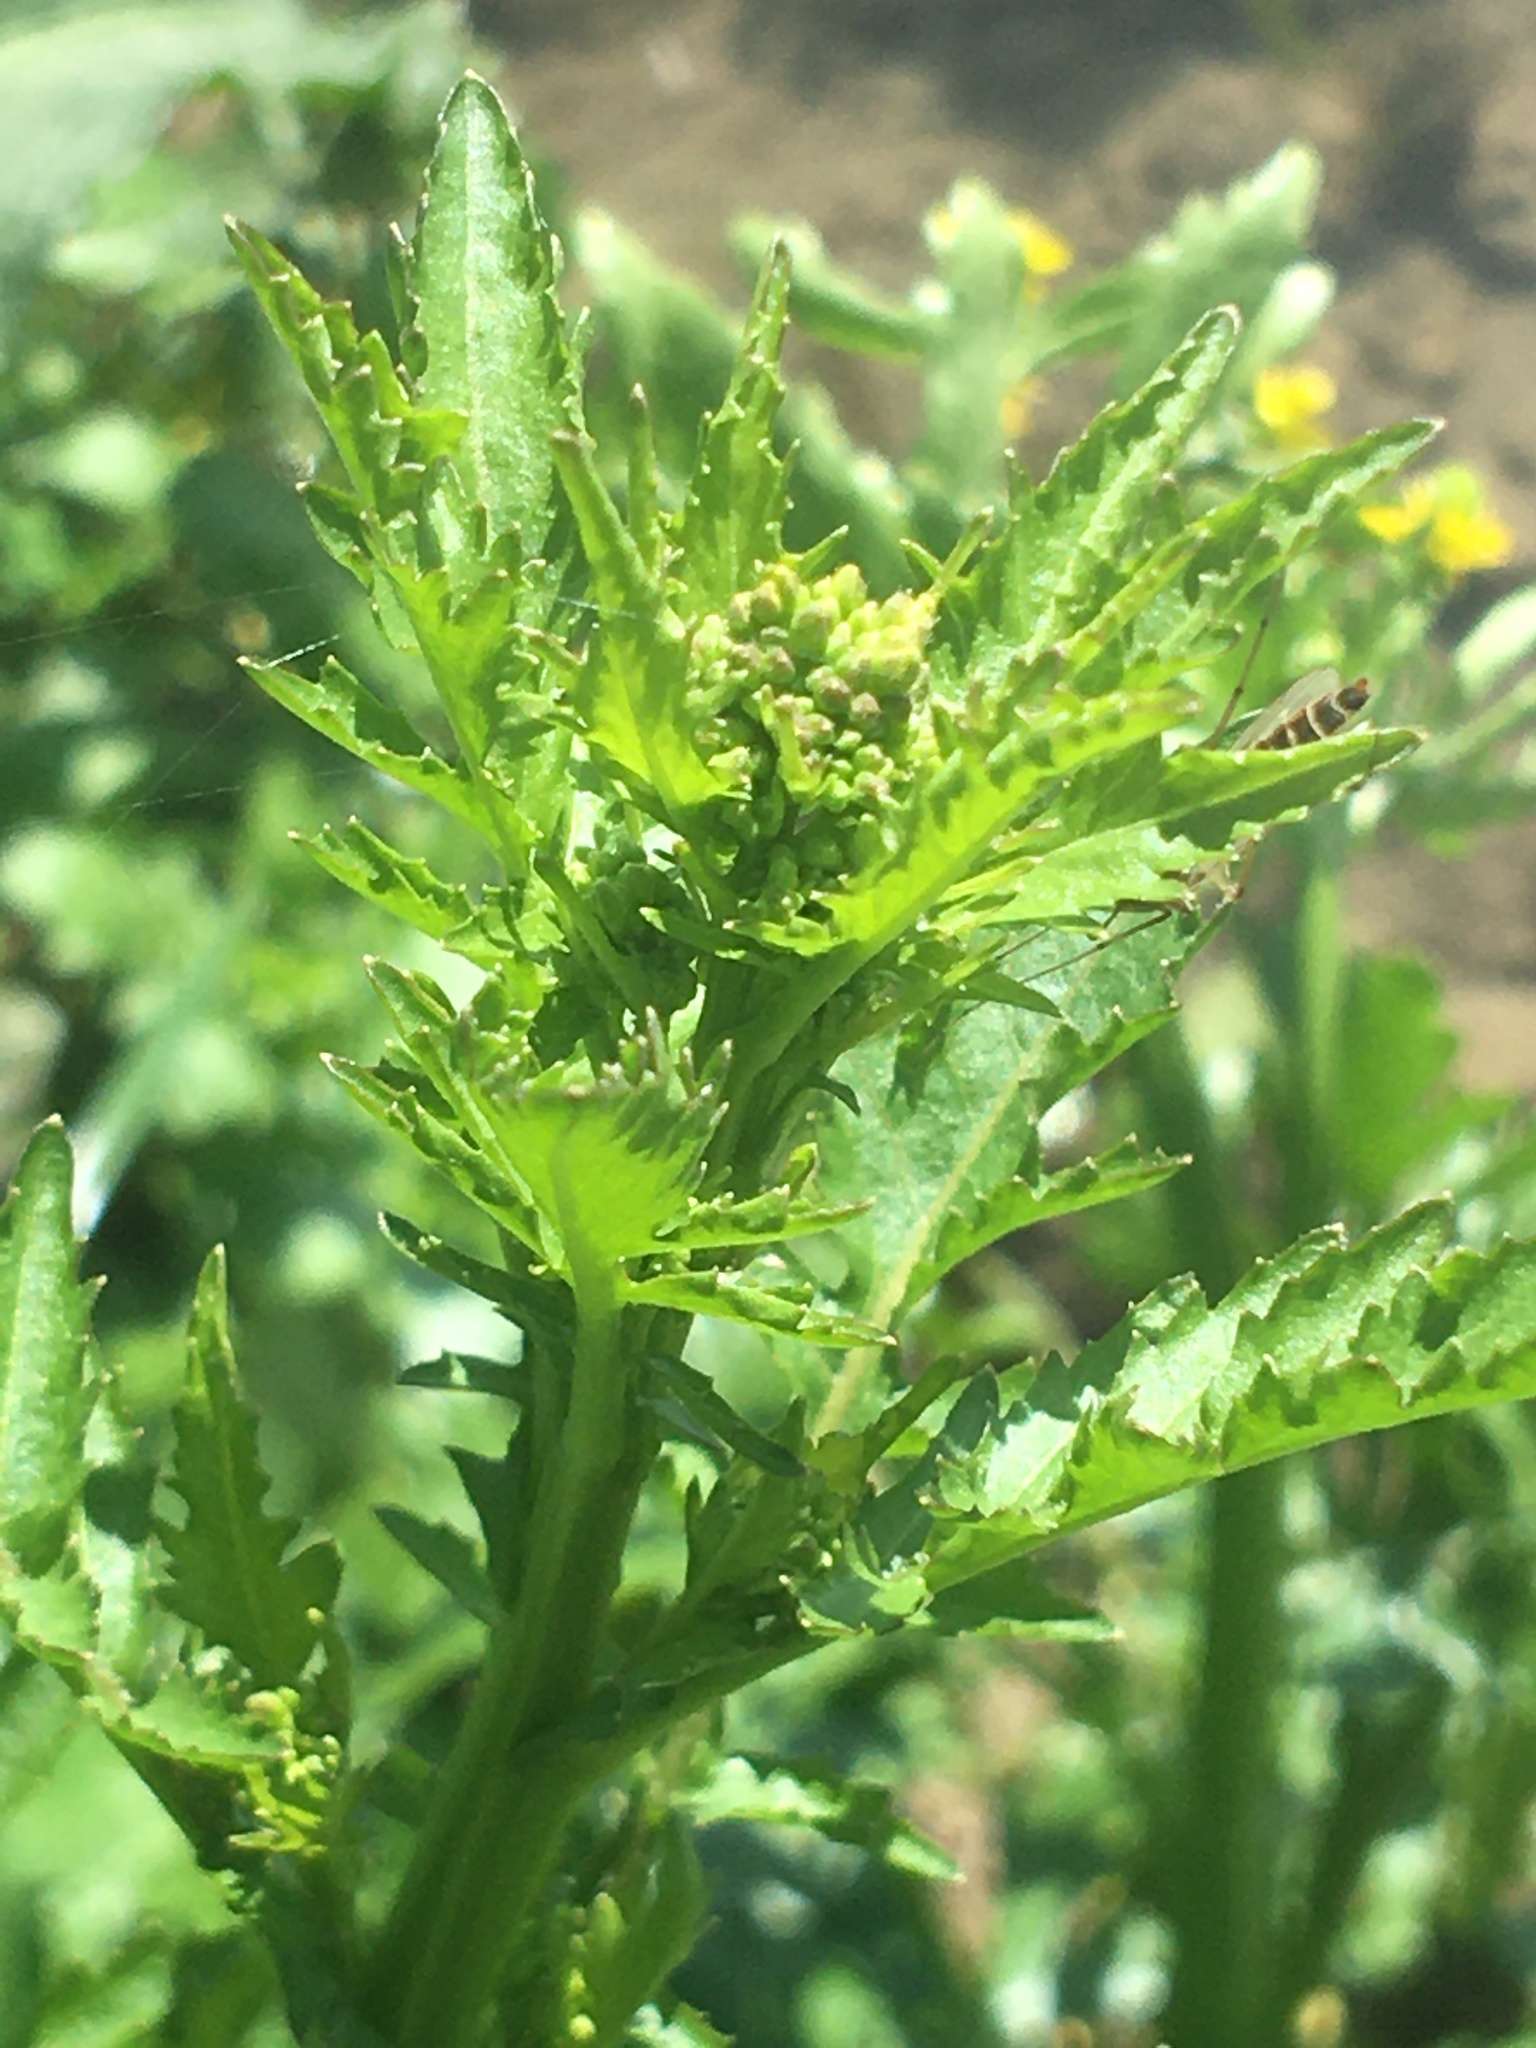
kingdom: Plantae
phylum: Tracheophyta
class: Magnoliopsida
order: Brassicales
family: Brassicaceae
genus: Rorippa
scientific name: Rorippa palustris
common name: Marsh yellow-cress
